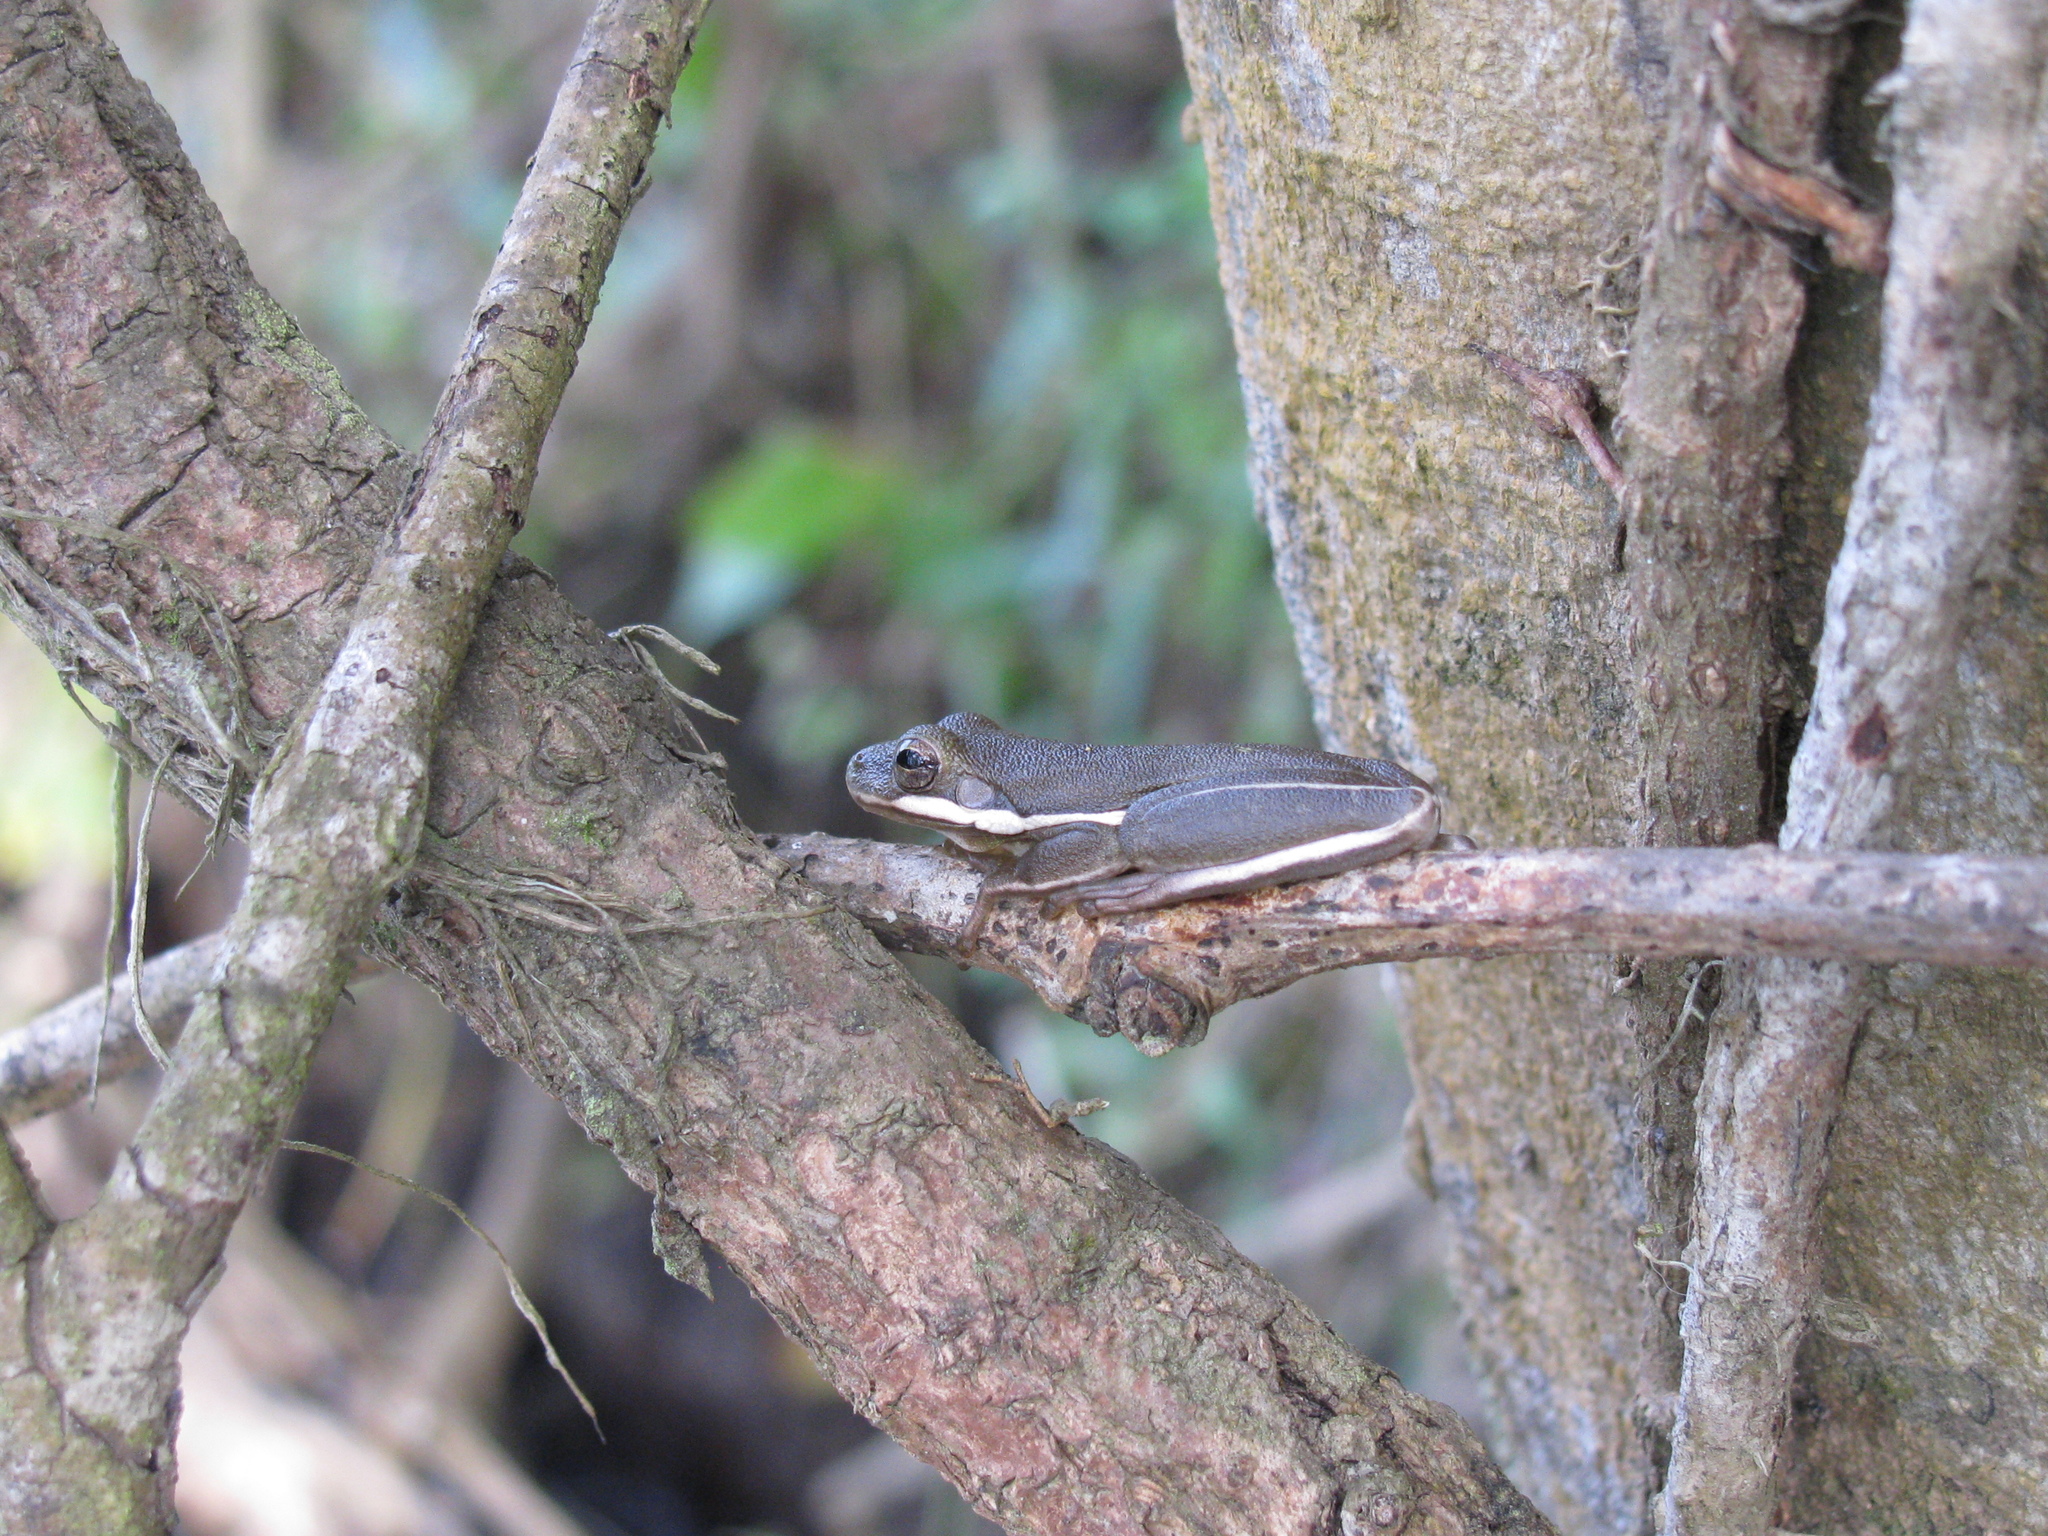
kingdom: Animalia
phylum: Chordata
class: Amphibia
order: Anura
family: Hylidae
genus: Dryophytes
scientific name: Dryophytes cinereus
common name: Green treefrog
